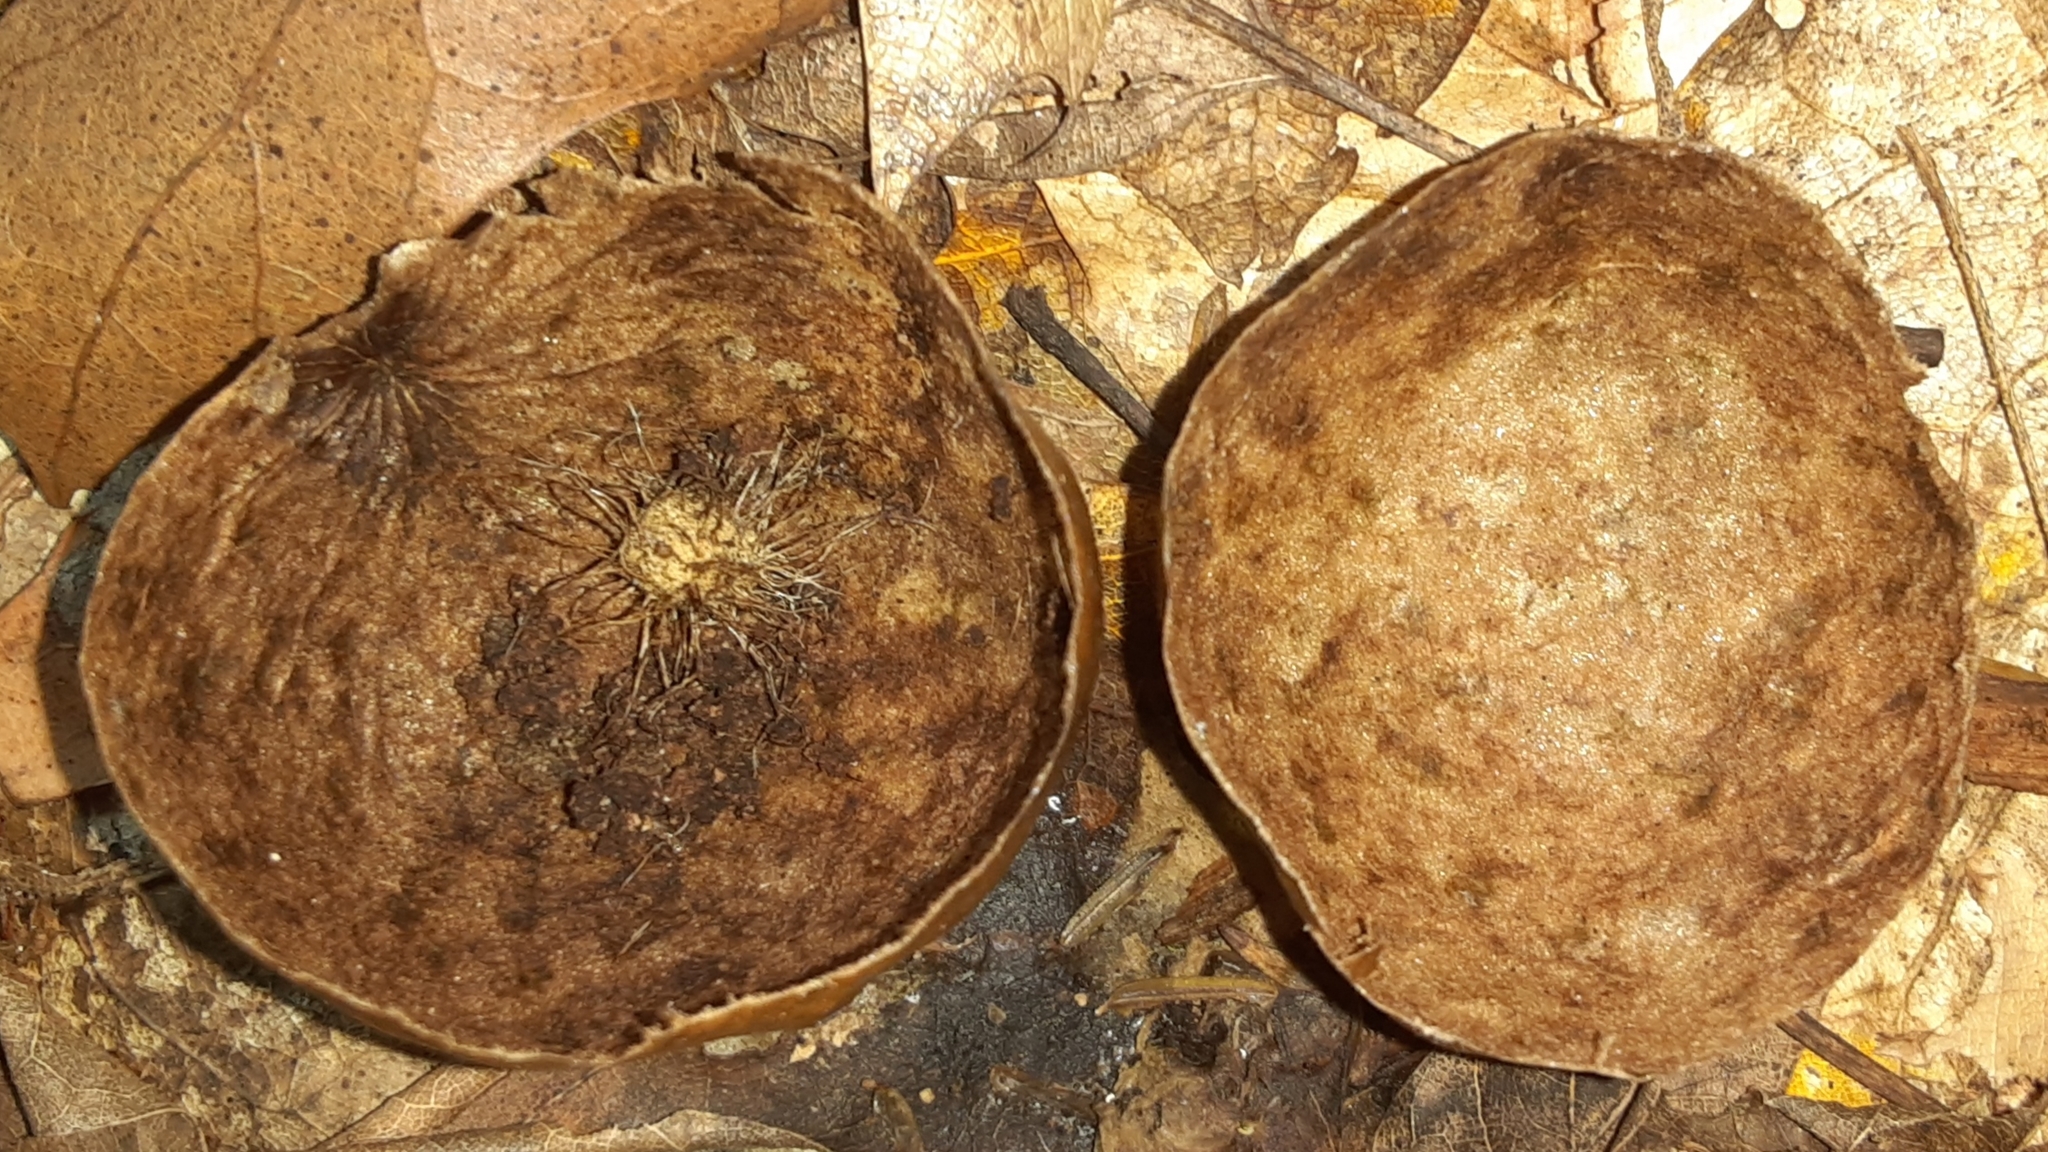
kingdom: Animalia
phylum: Arthropoda
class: Insecta
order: Hymenoptera
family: Cynipidae
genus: Amphibolips
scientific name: Amphibolips
